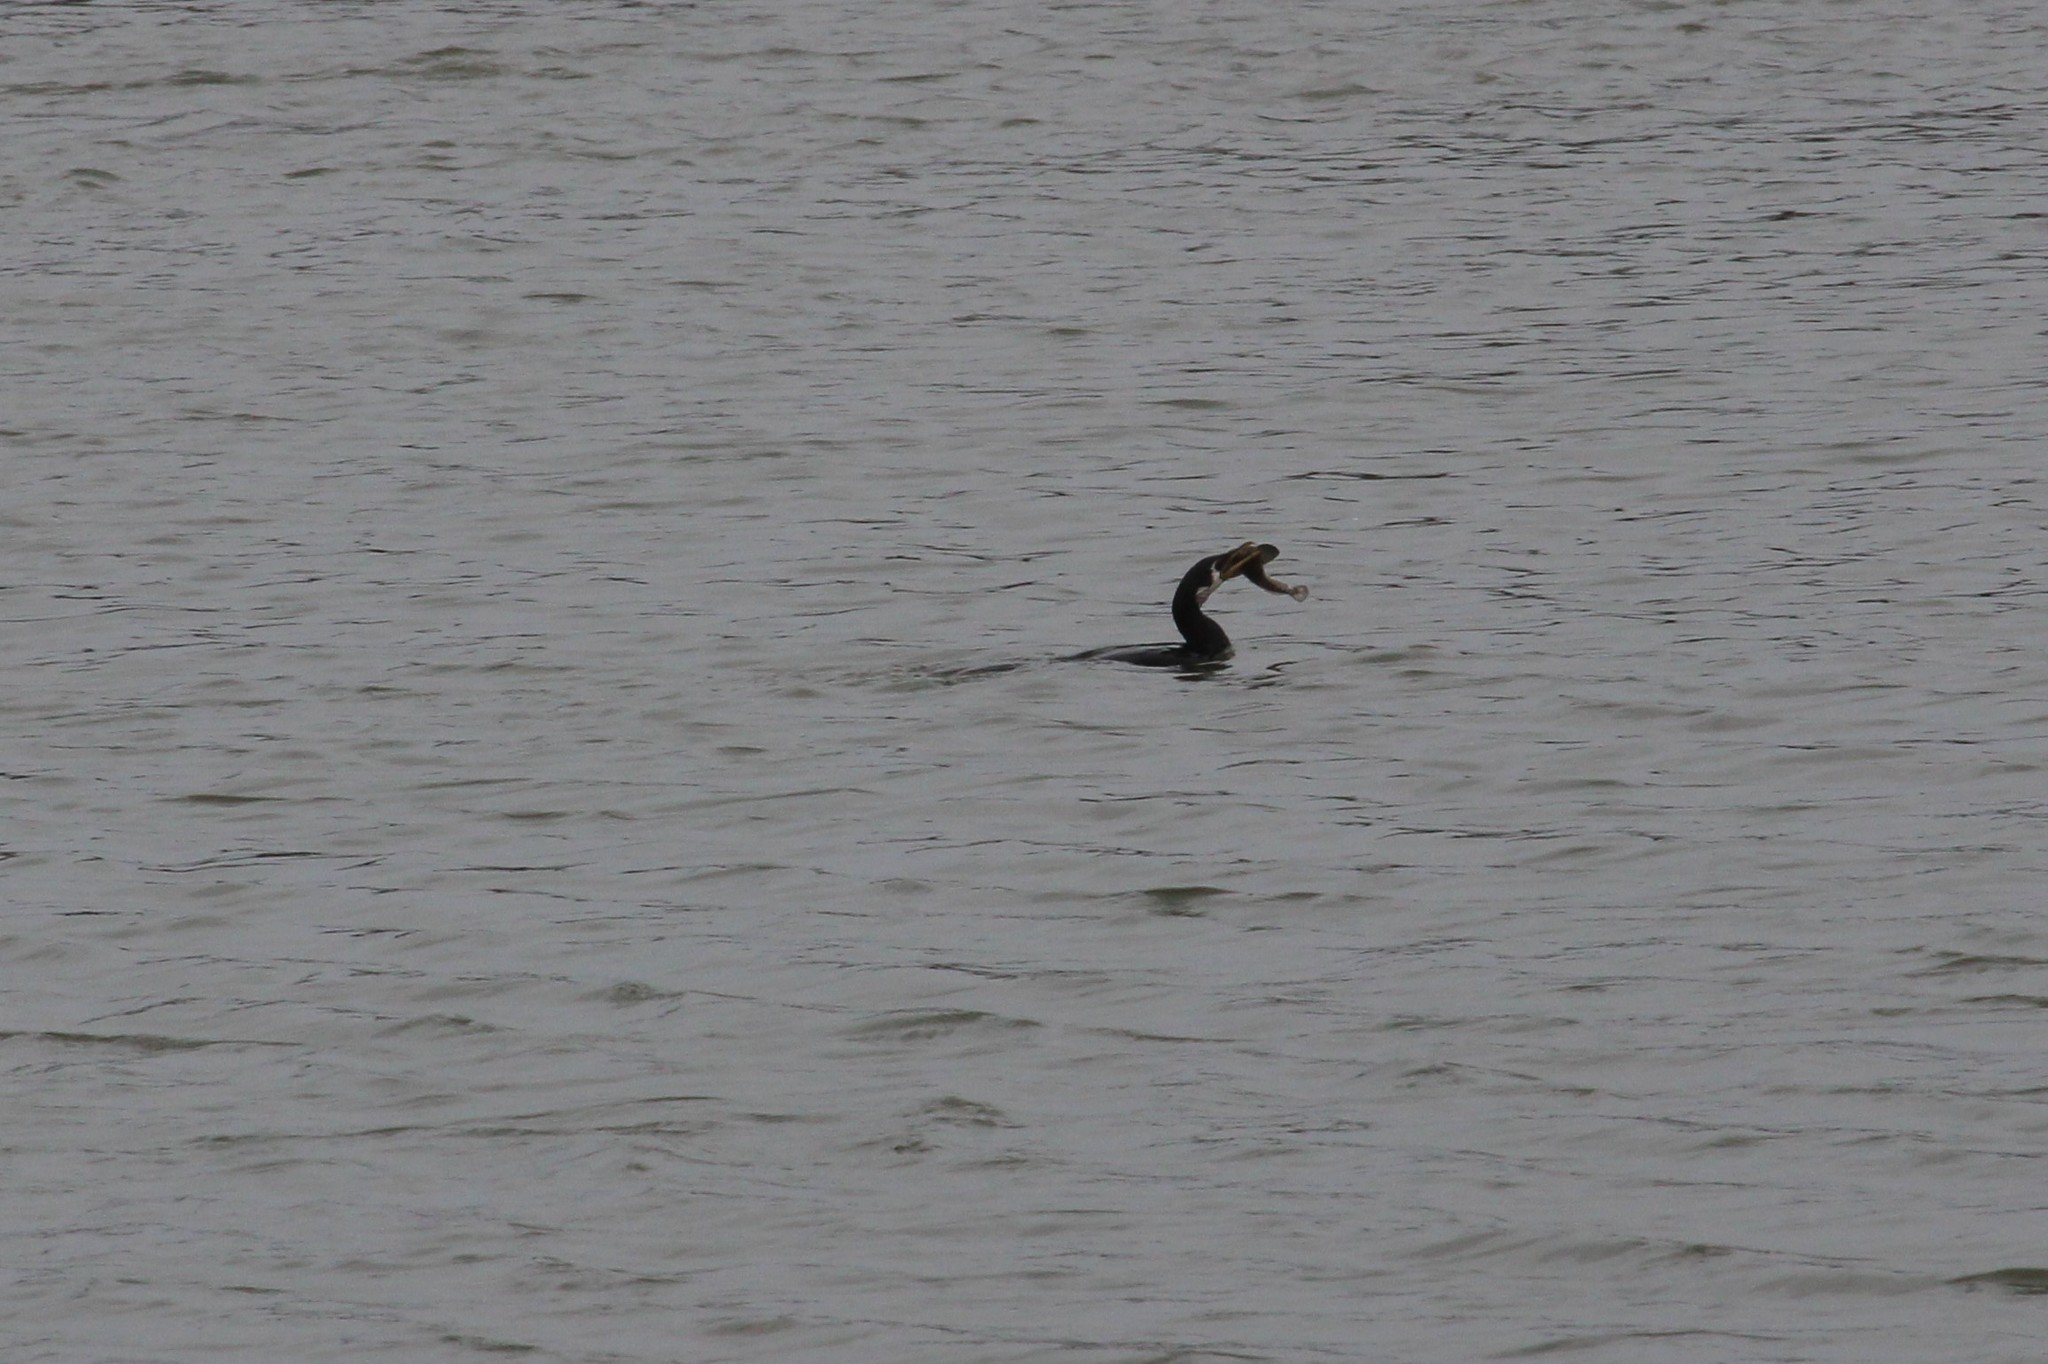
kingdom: Animalia
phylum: Chordata
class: Aves
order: Suliformes
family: Phalacrocoracidae
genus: Microcarbo
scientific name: Microcarbo melanoleucos
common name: Little pied cormorant
